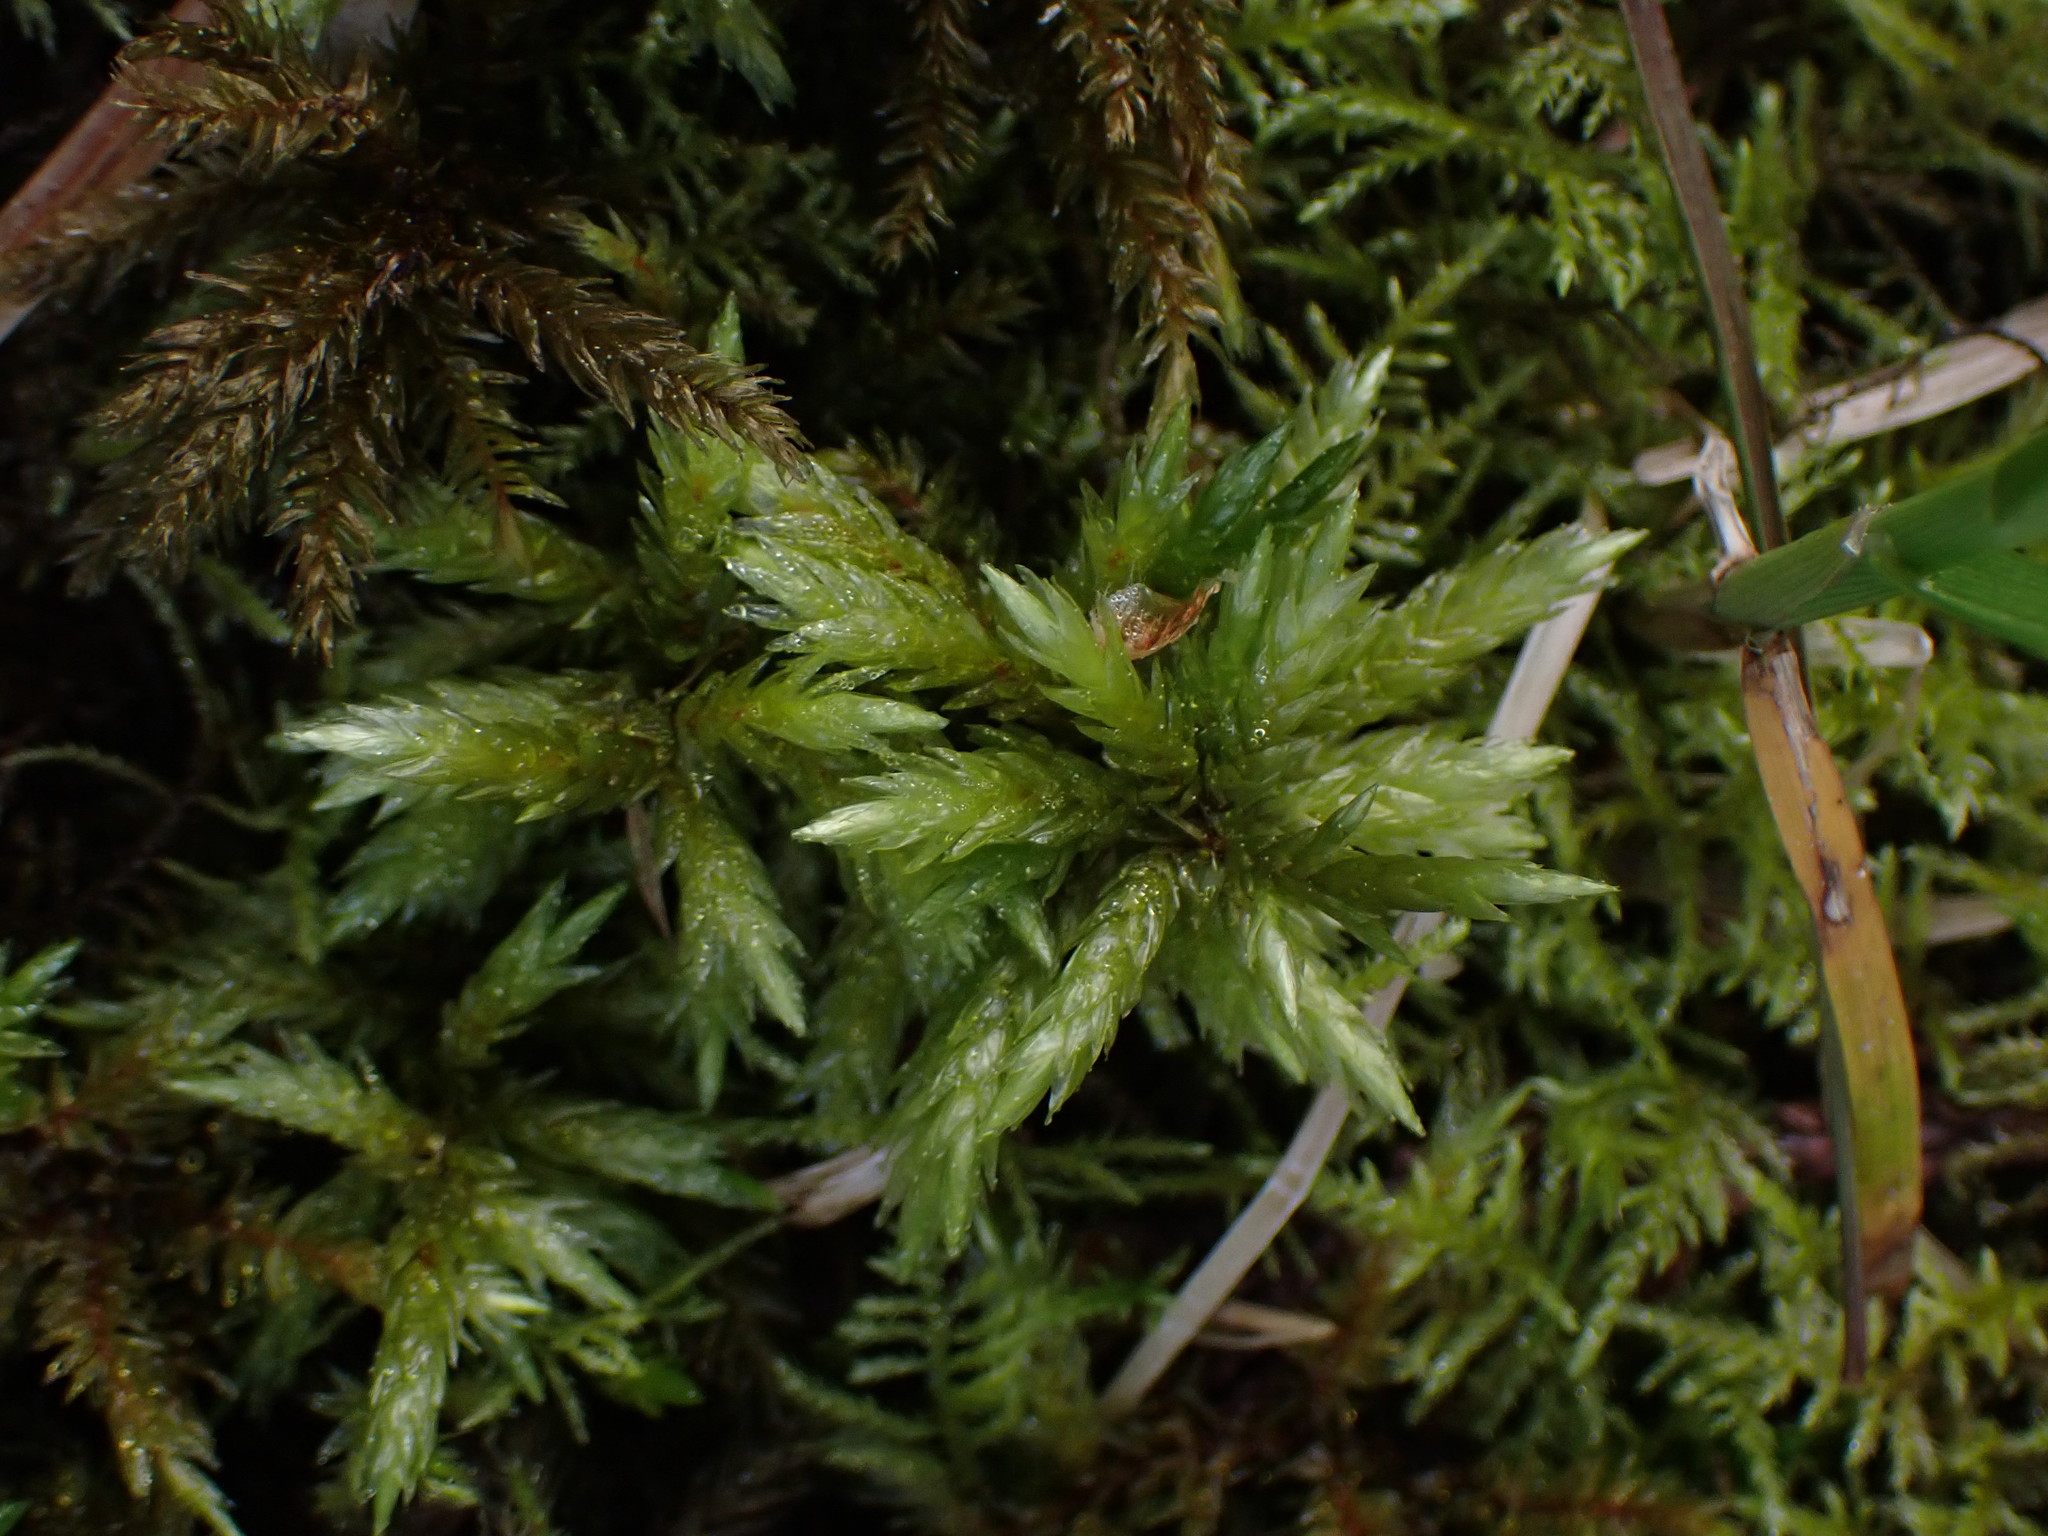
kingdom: Plantae
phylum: Bryophyta
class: Bryopsida
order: Hypnales
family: Climaciaceae
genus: Climacium
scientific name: Climacium dendroides
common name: Northern tree moss
